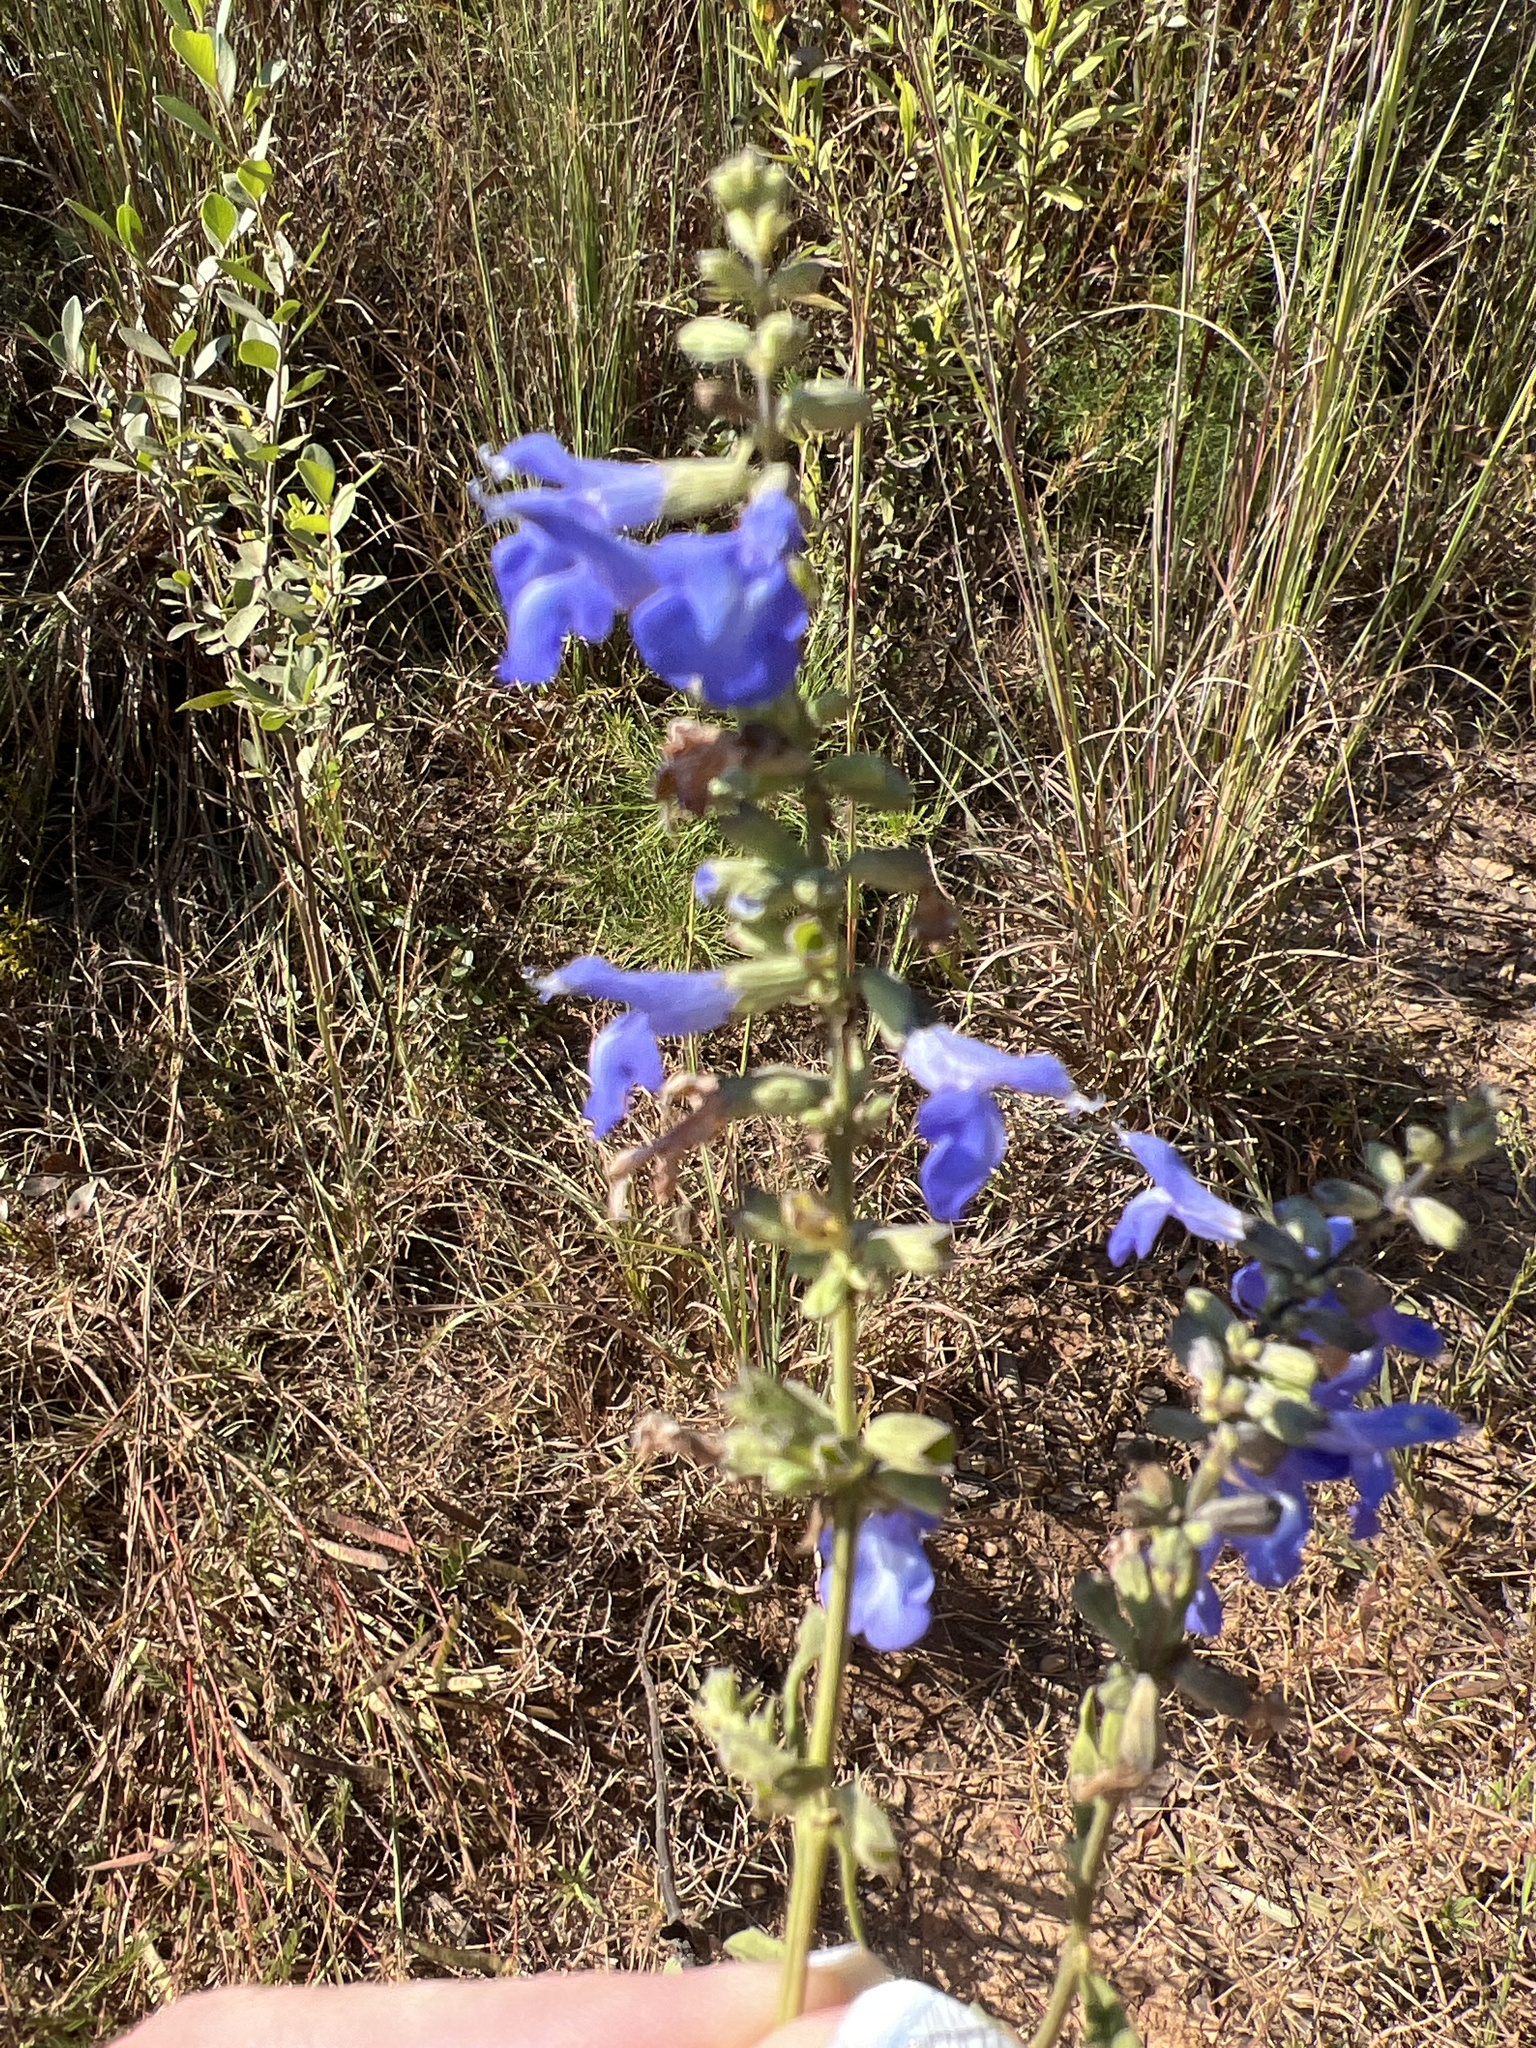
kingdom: Plantae
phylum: Tracheophyta
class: Magnoliopsida
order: Lamiales
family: Lamiaceae
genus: Salvia
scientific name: Salvia azurea
